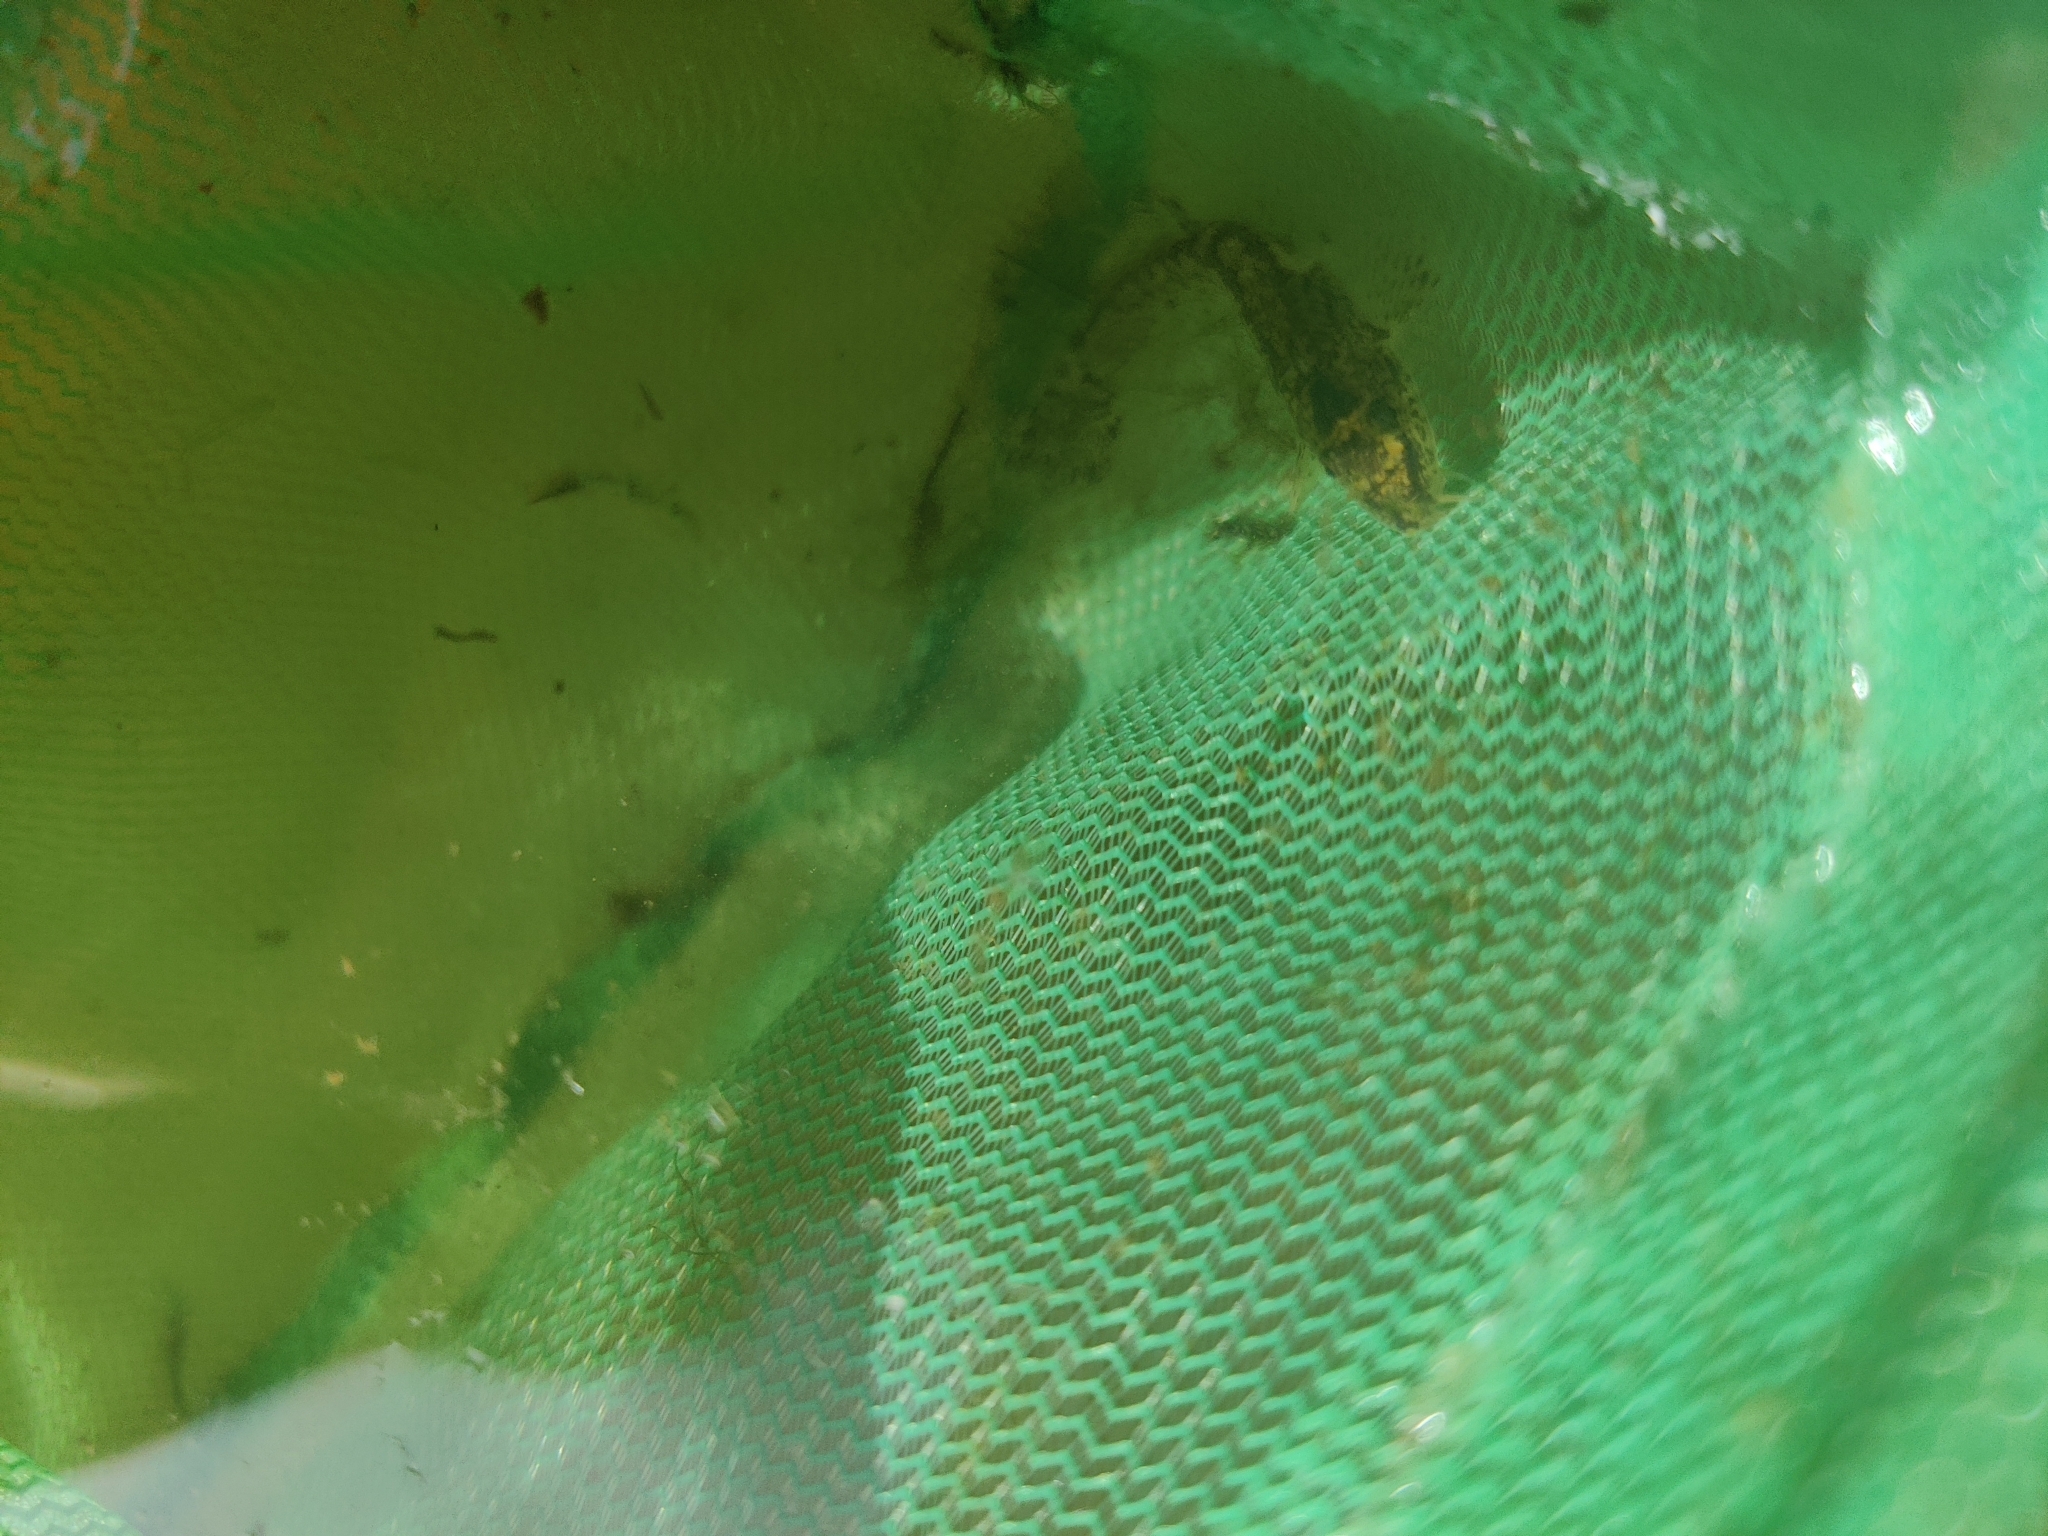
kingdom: Animalia
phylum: Chordata
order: Cypriniformes
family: Nemacheilidae
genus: Barbatula
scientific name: Barbatula barbatula
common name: Stone loach
